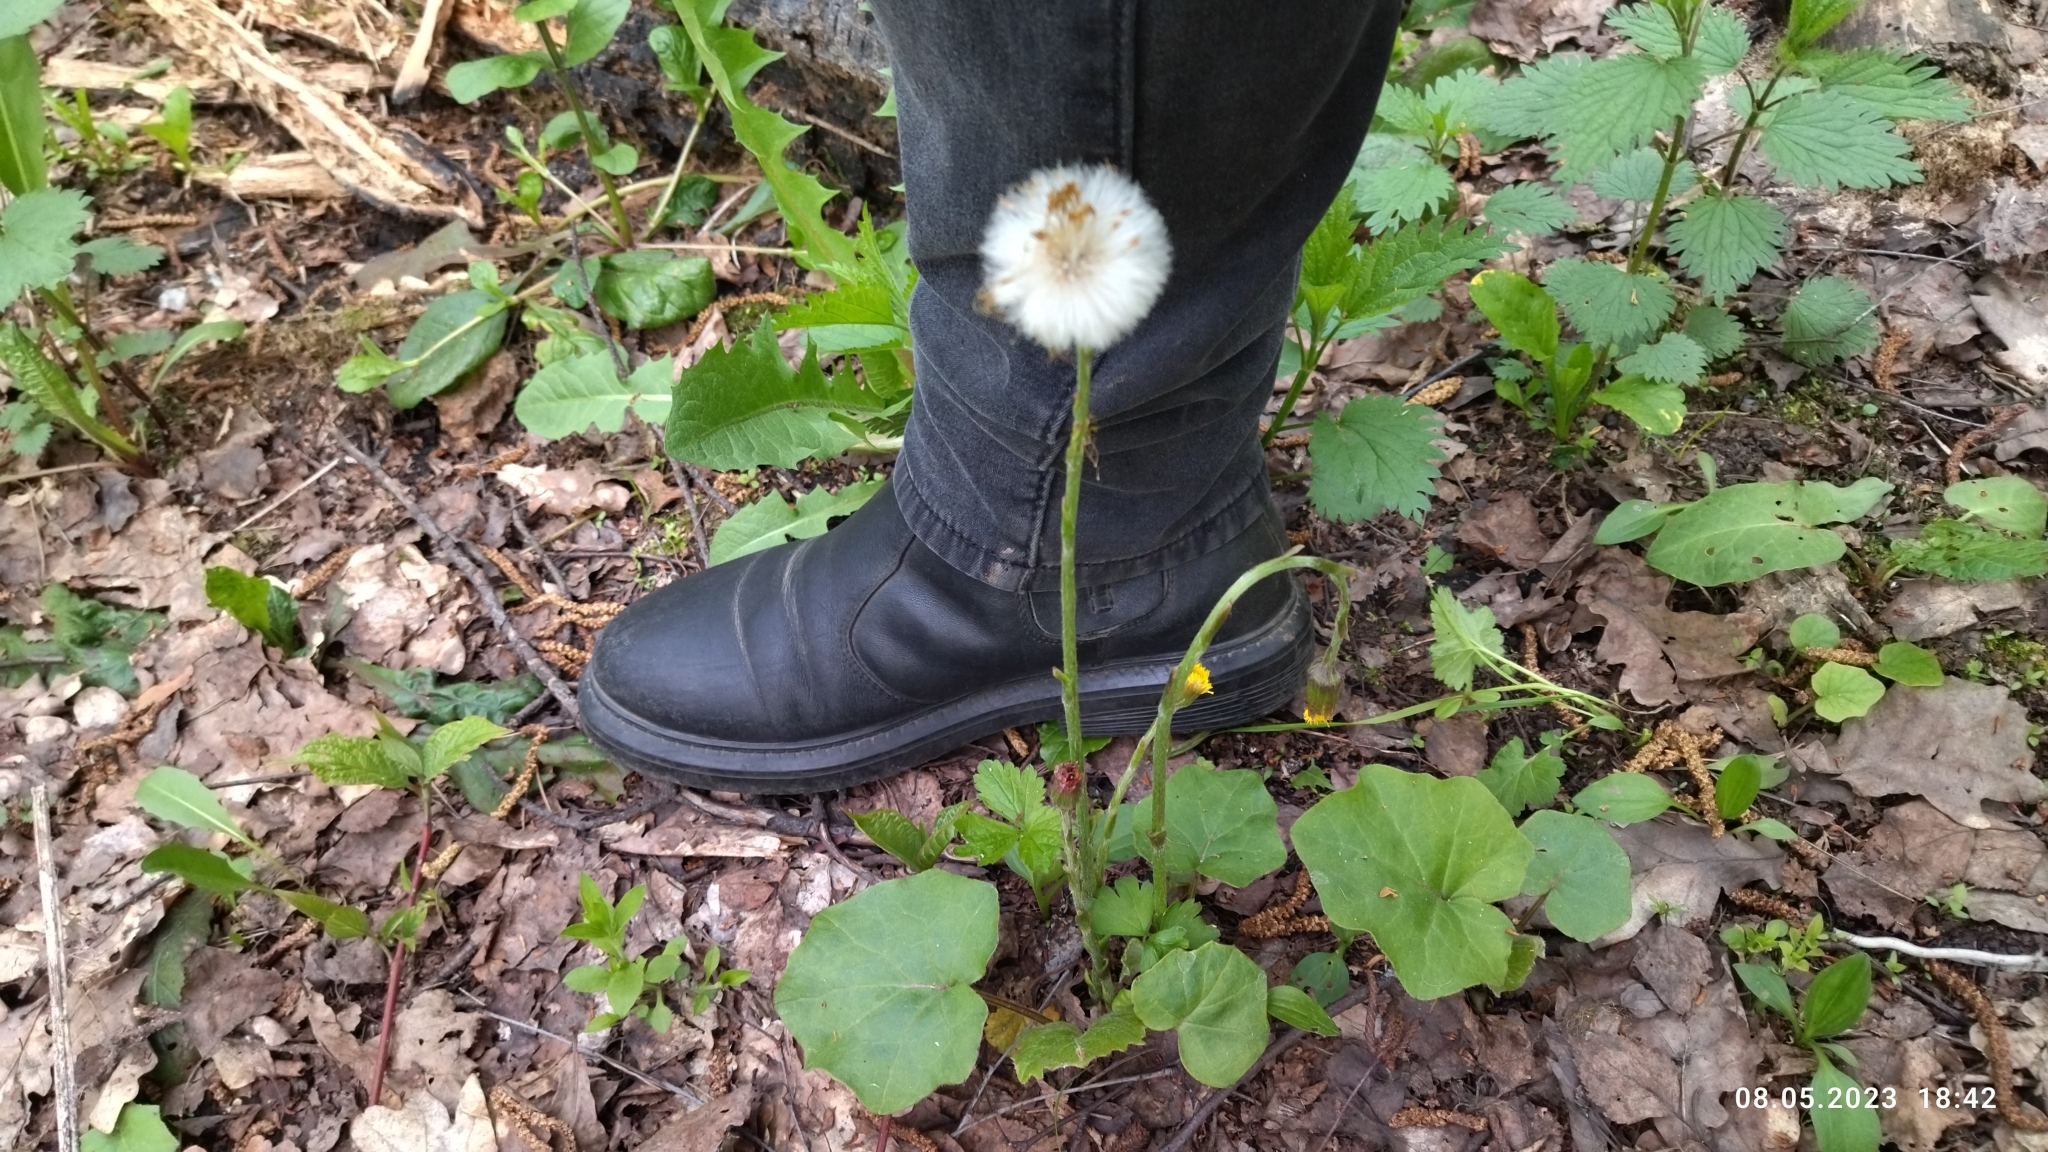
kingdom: Plantae
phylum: Tracheophyta
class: Magnoliopsida
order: Asterales
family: Asteraceae
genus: Tussilago
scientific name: Tussilago farfara
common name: Coltsfoot
